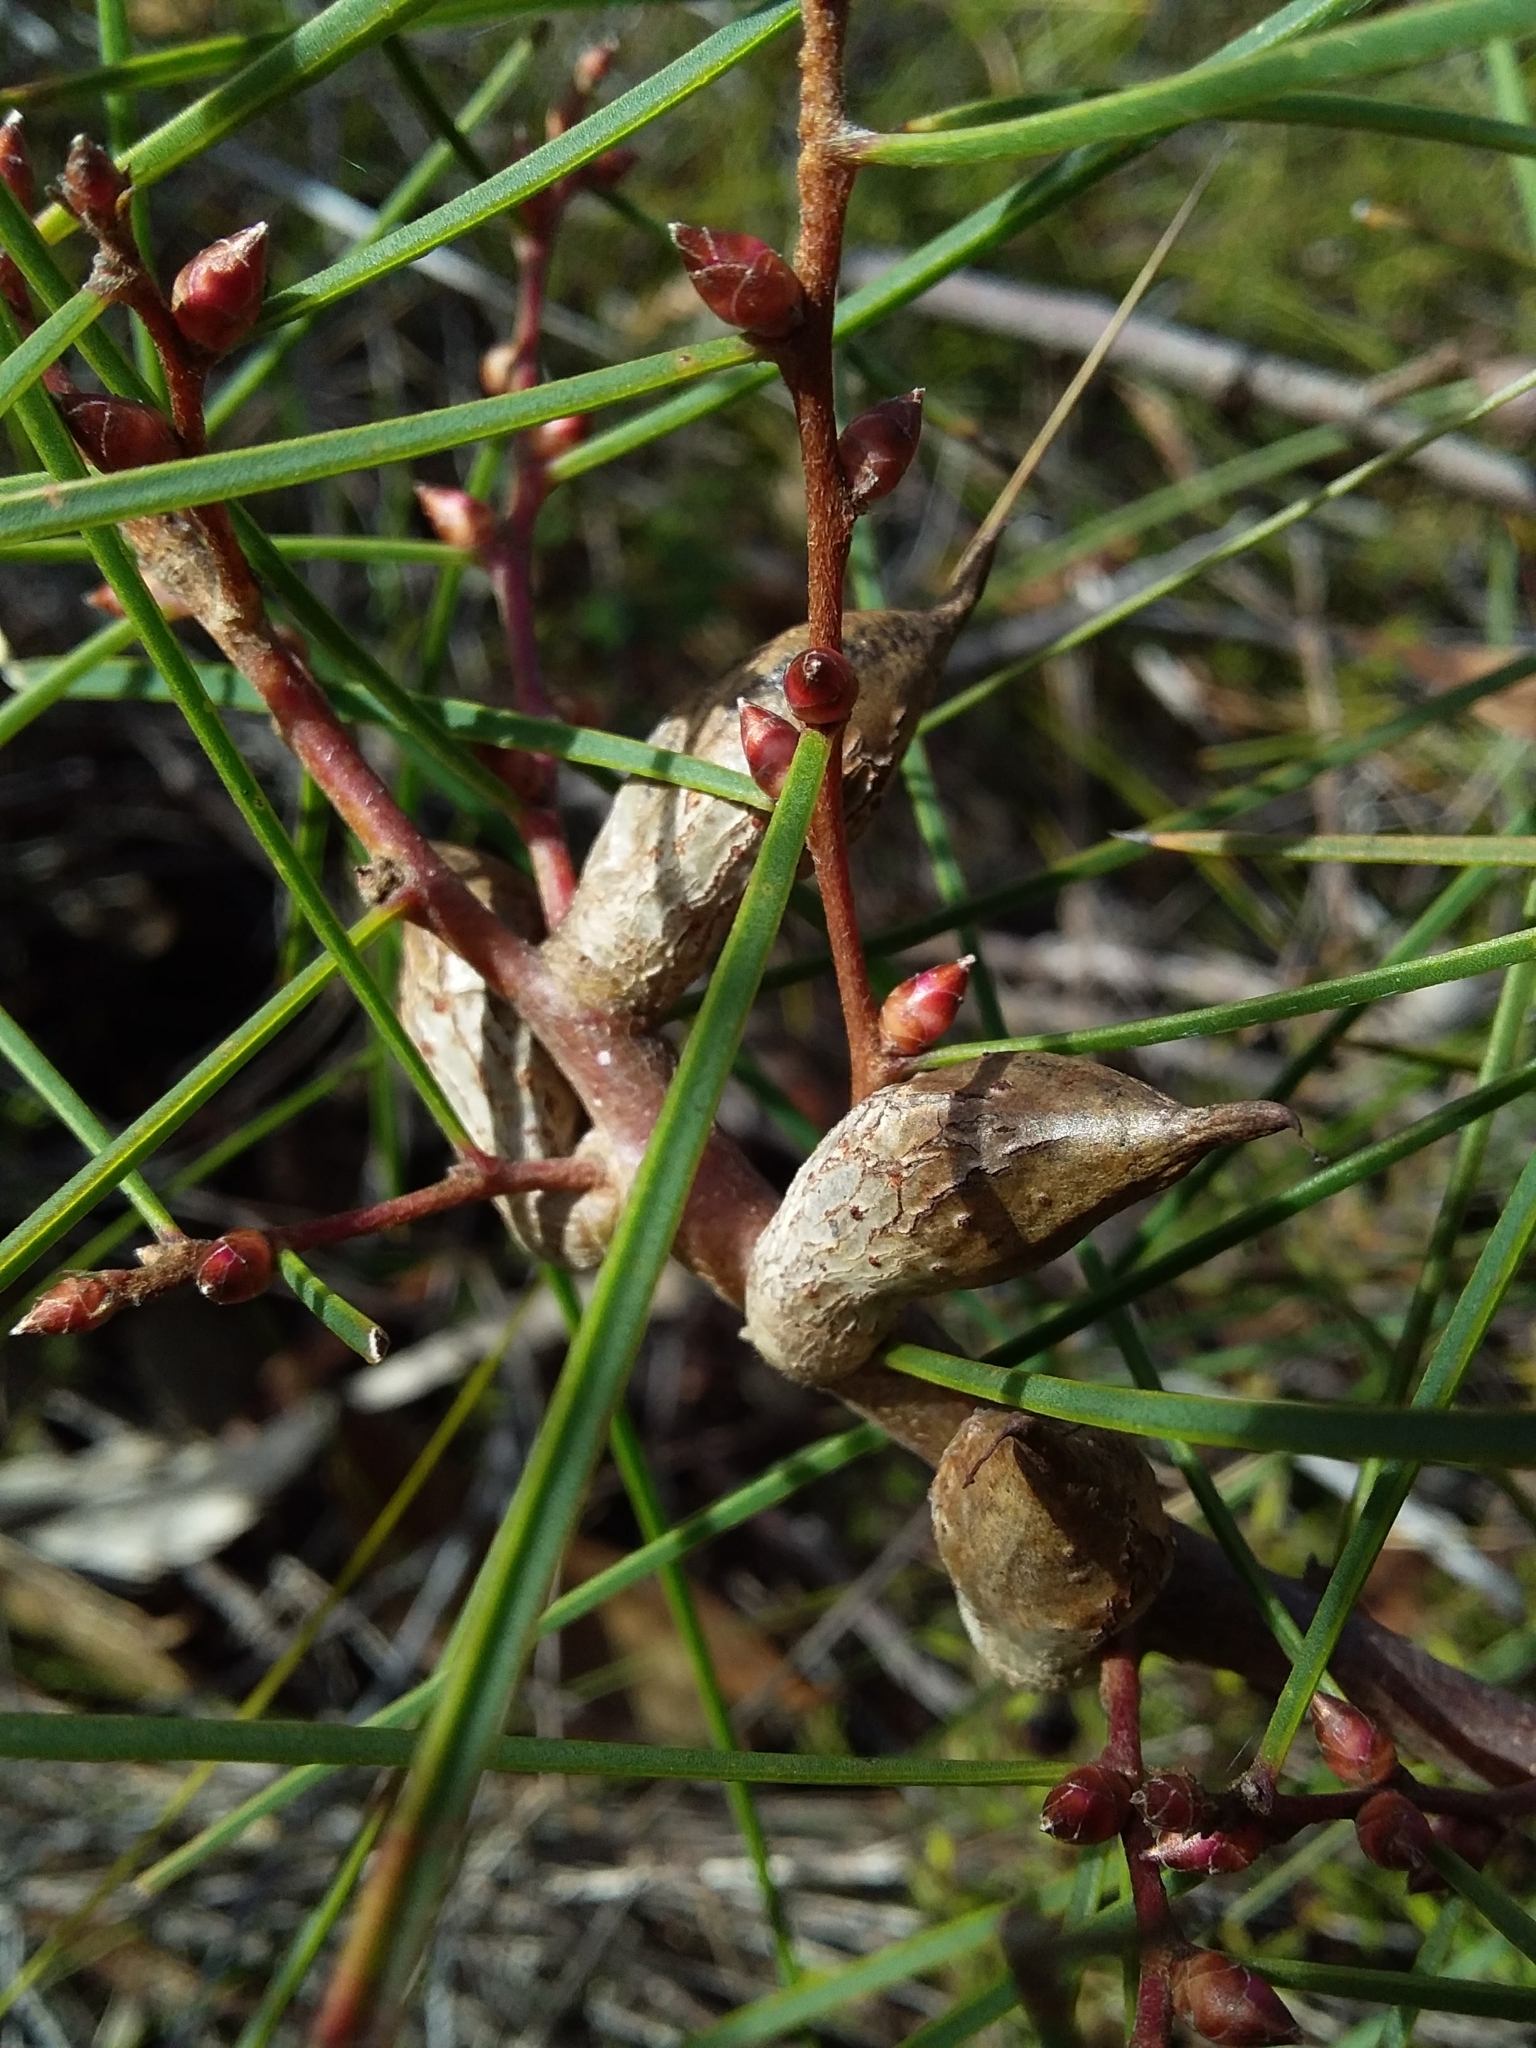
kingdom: Plantae
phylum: Tracheophyta
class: Magnoliopsida
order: Proteales
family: Proteaceae
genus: Hakea
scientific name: Hakea carinata
